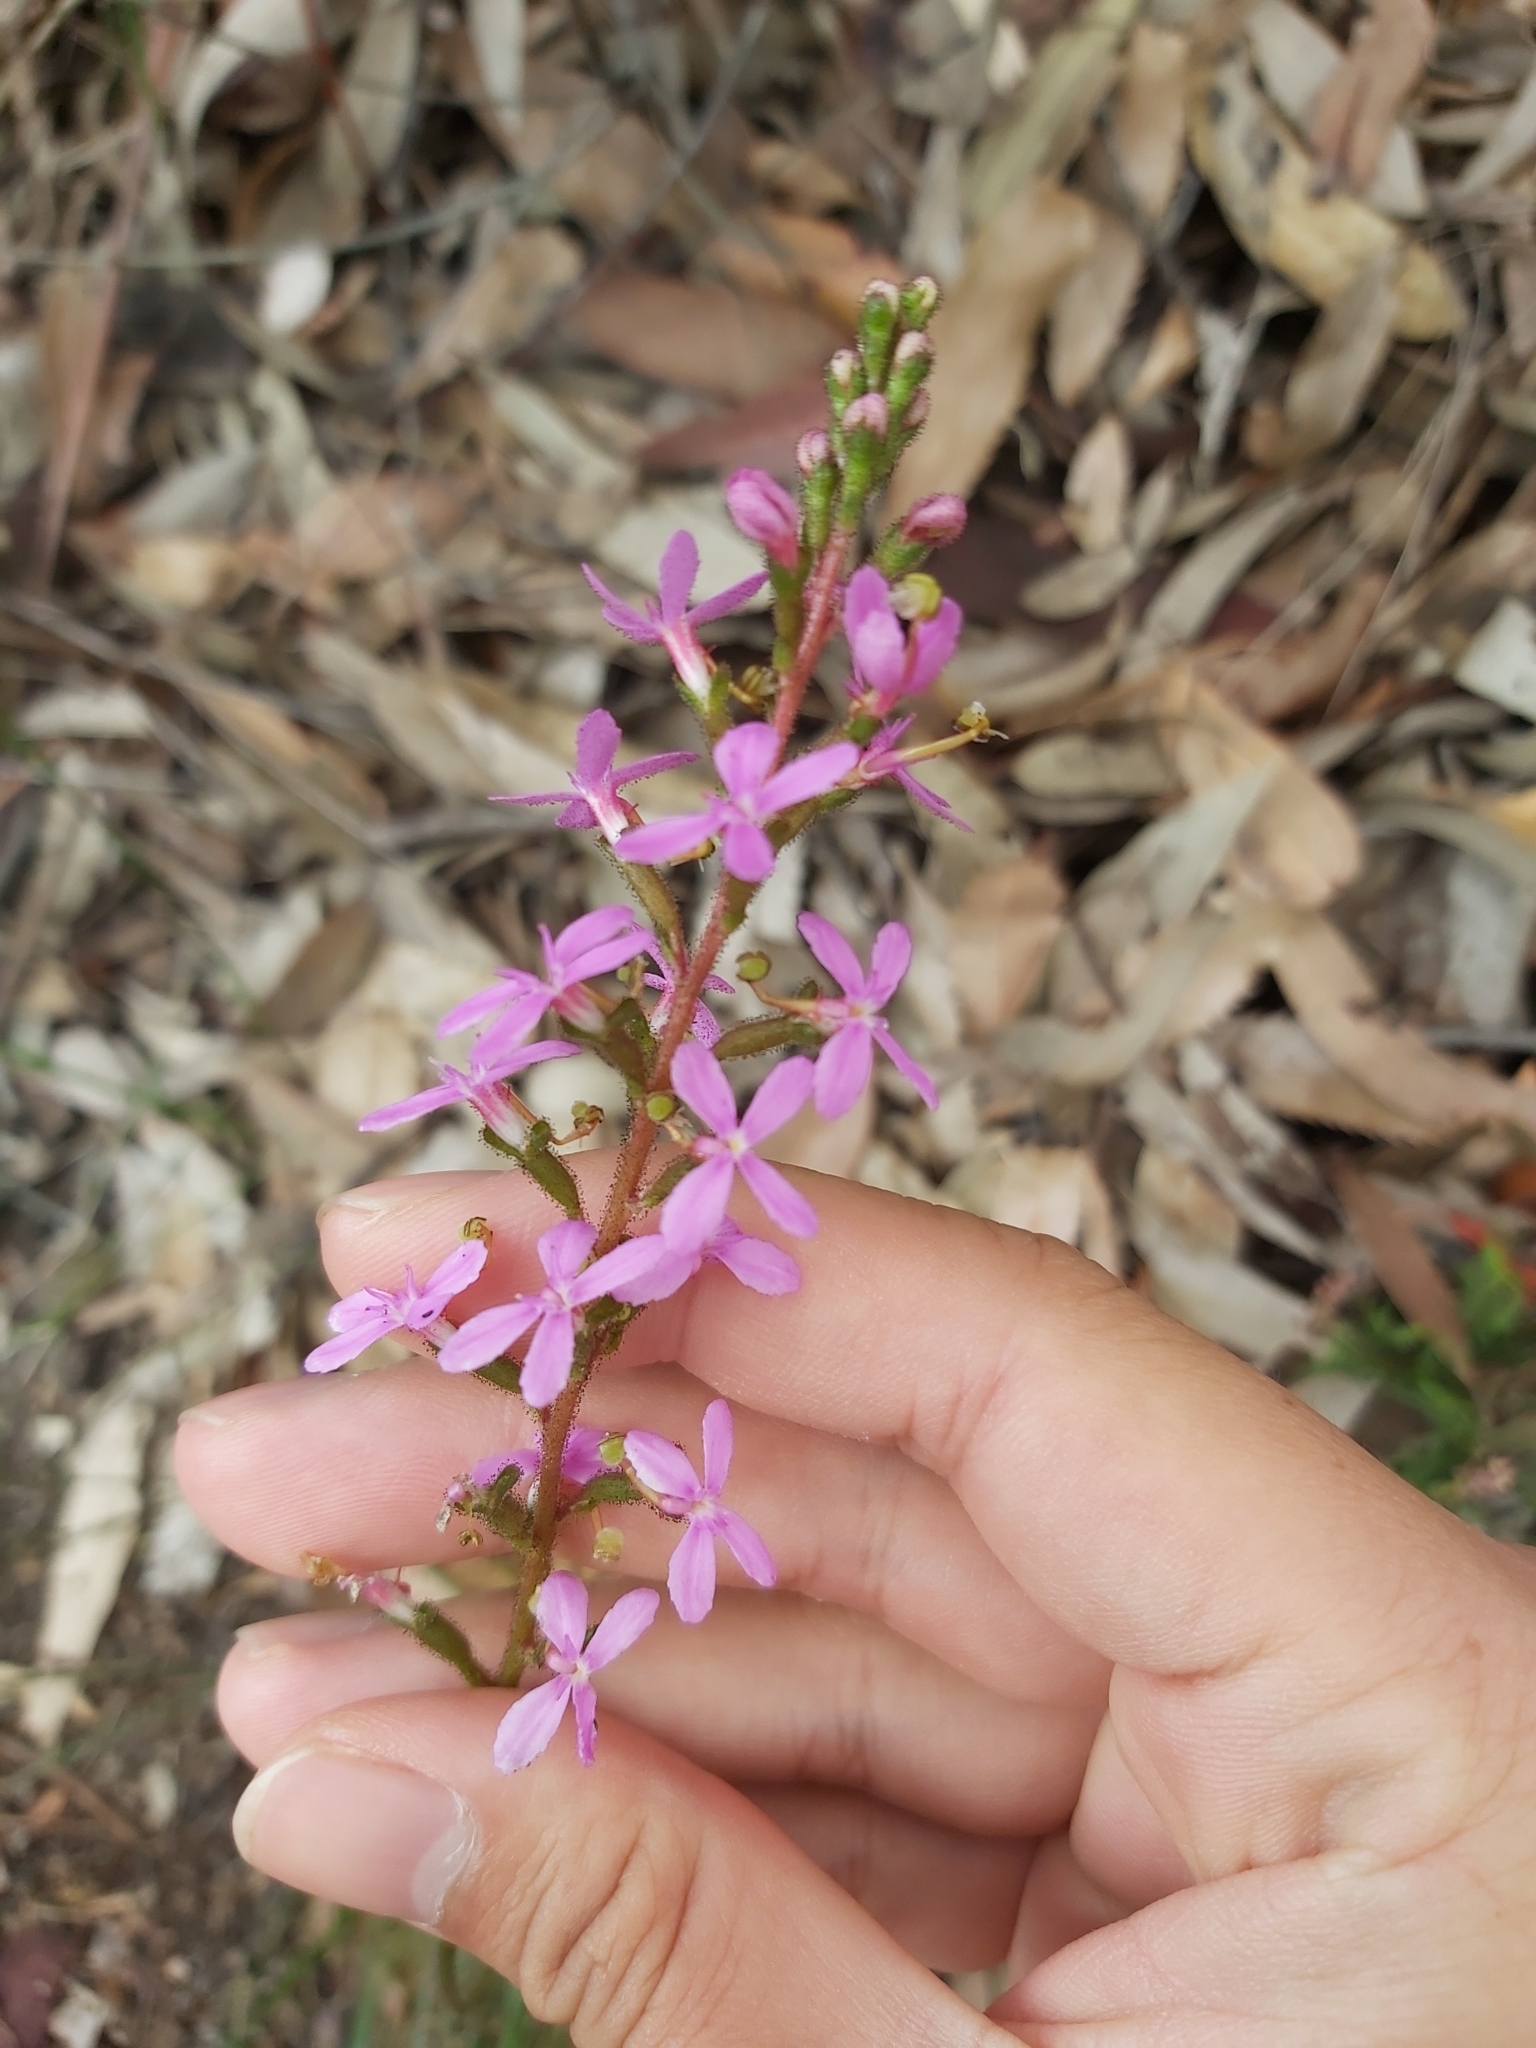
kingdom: Plantae
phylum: Tracheophyta
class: Magnoliopsida
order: Asterales
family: Stylidiaceae
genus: Stylidium
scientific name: Stylidium graminifolium
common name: Grass triggerplant
